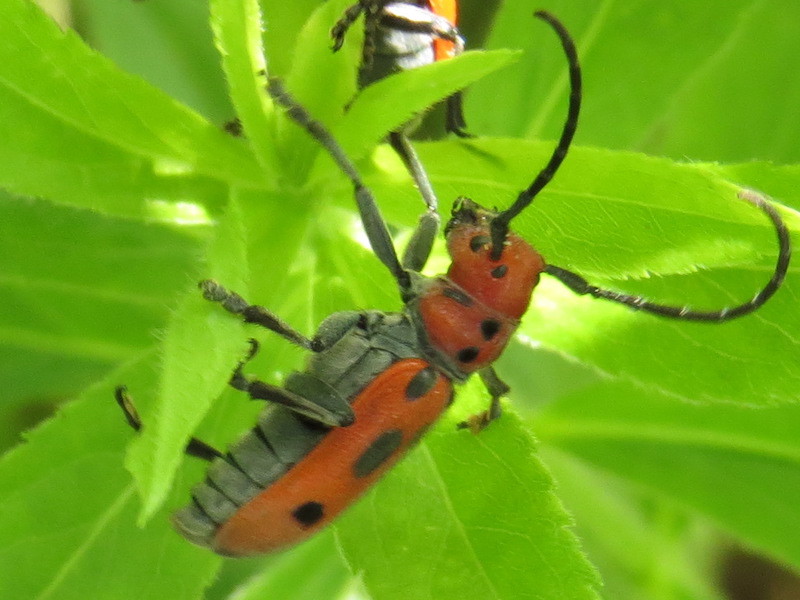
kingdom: Animalia
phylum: Arthropoda
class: Insecta
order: Coleoptera
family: Cerambycidae
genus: Tetraopes
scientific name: Tetraopes tetrophthalmus
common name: Red milkweed beetle
